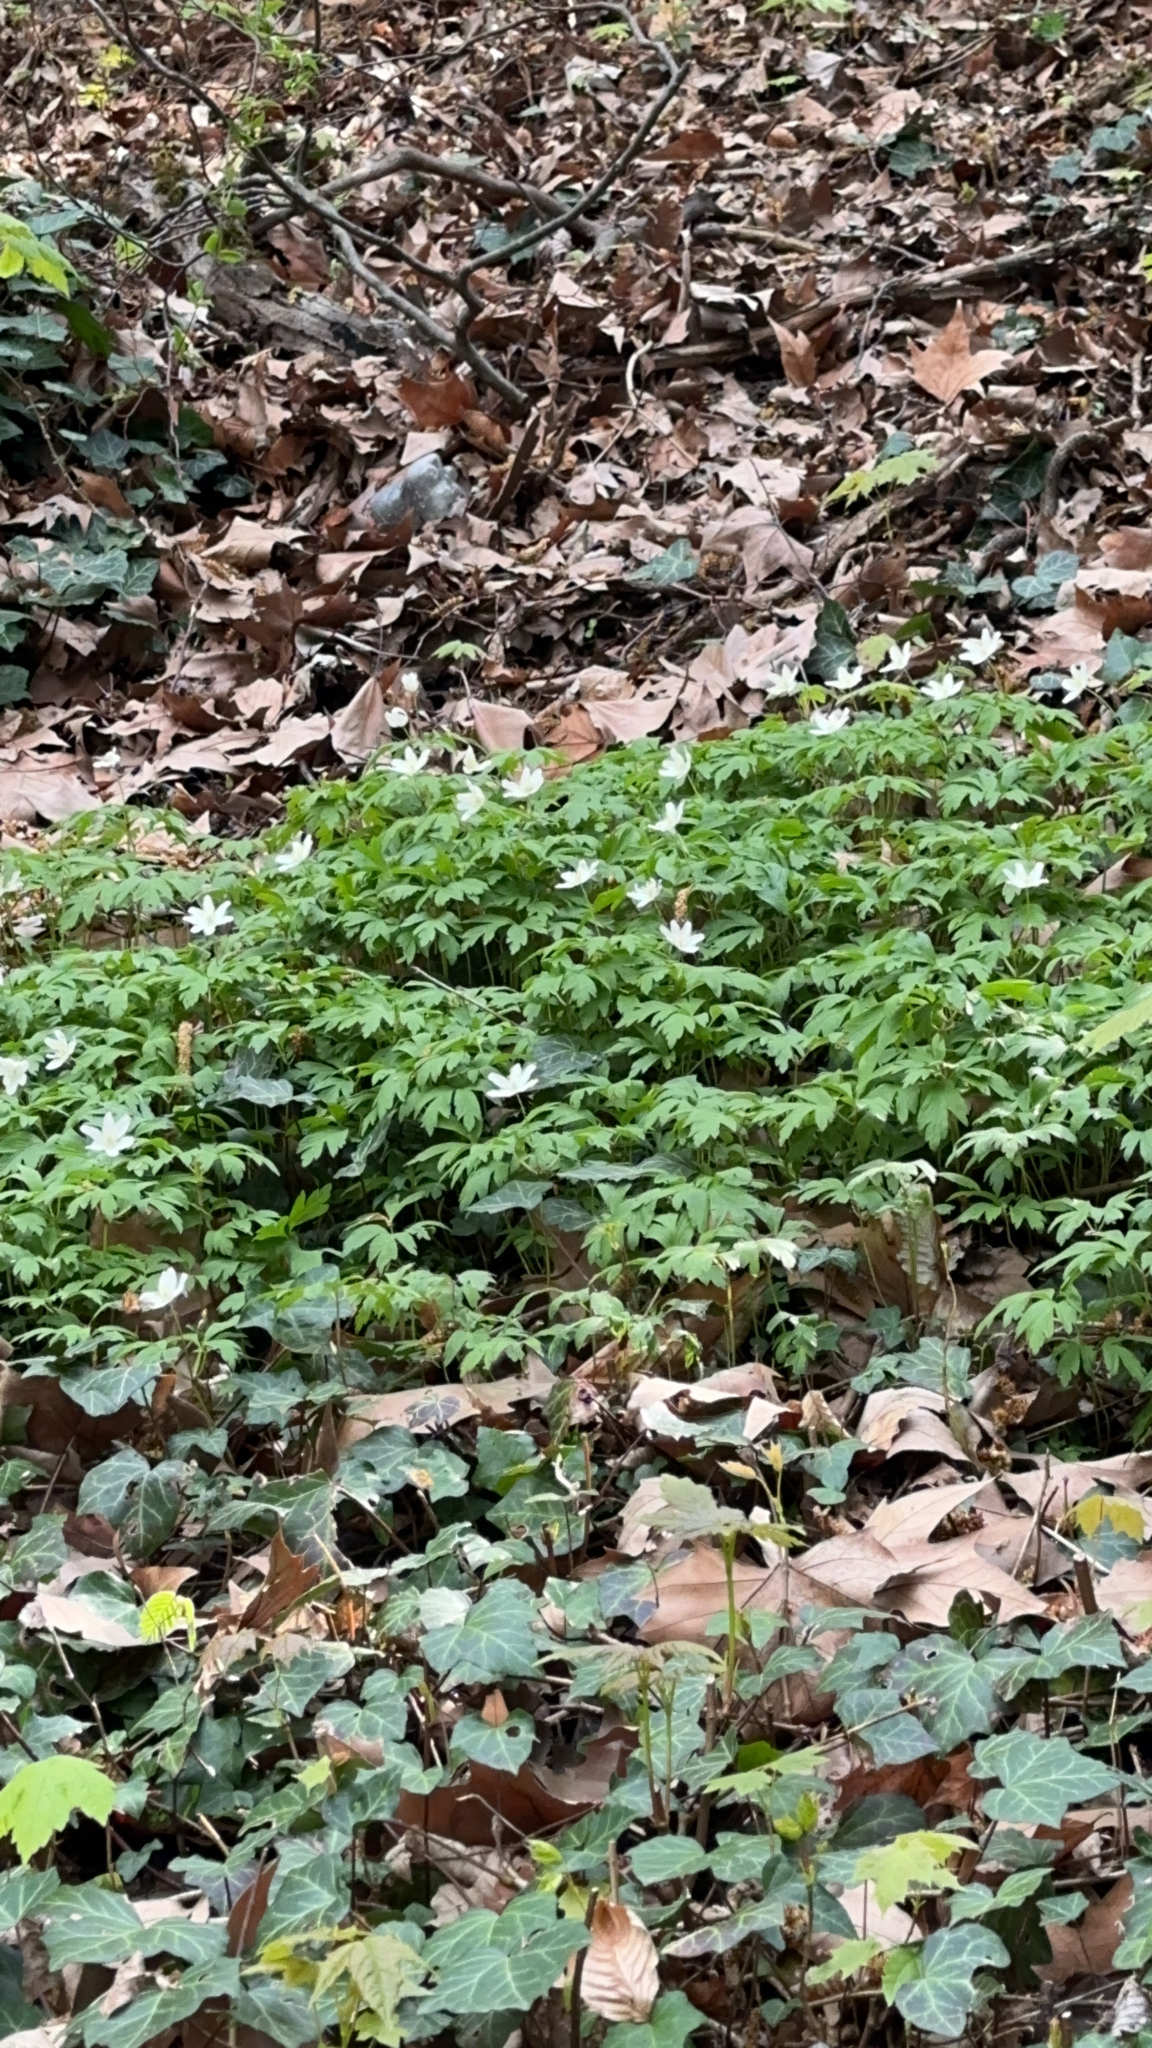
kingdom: Plantae
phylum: Tracheophyta
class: Magnoliopsida
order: Ranunculales
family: Ranunculaceae
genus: Anemone
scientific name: Anemone nemorosa
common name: Wood anemone
